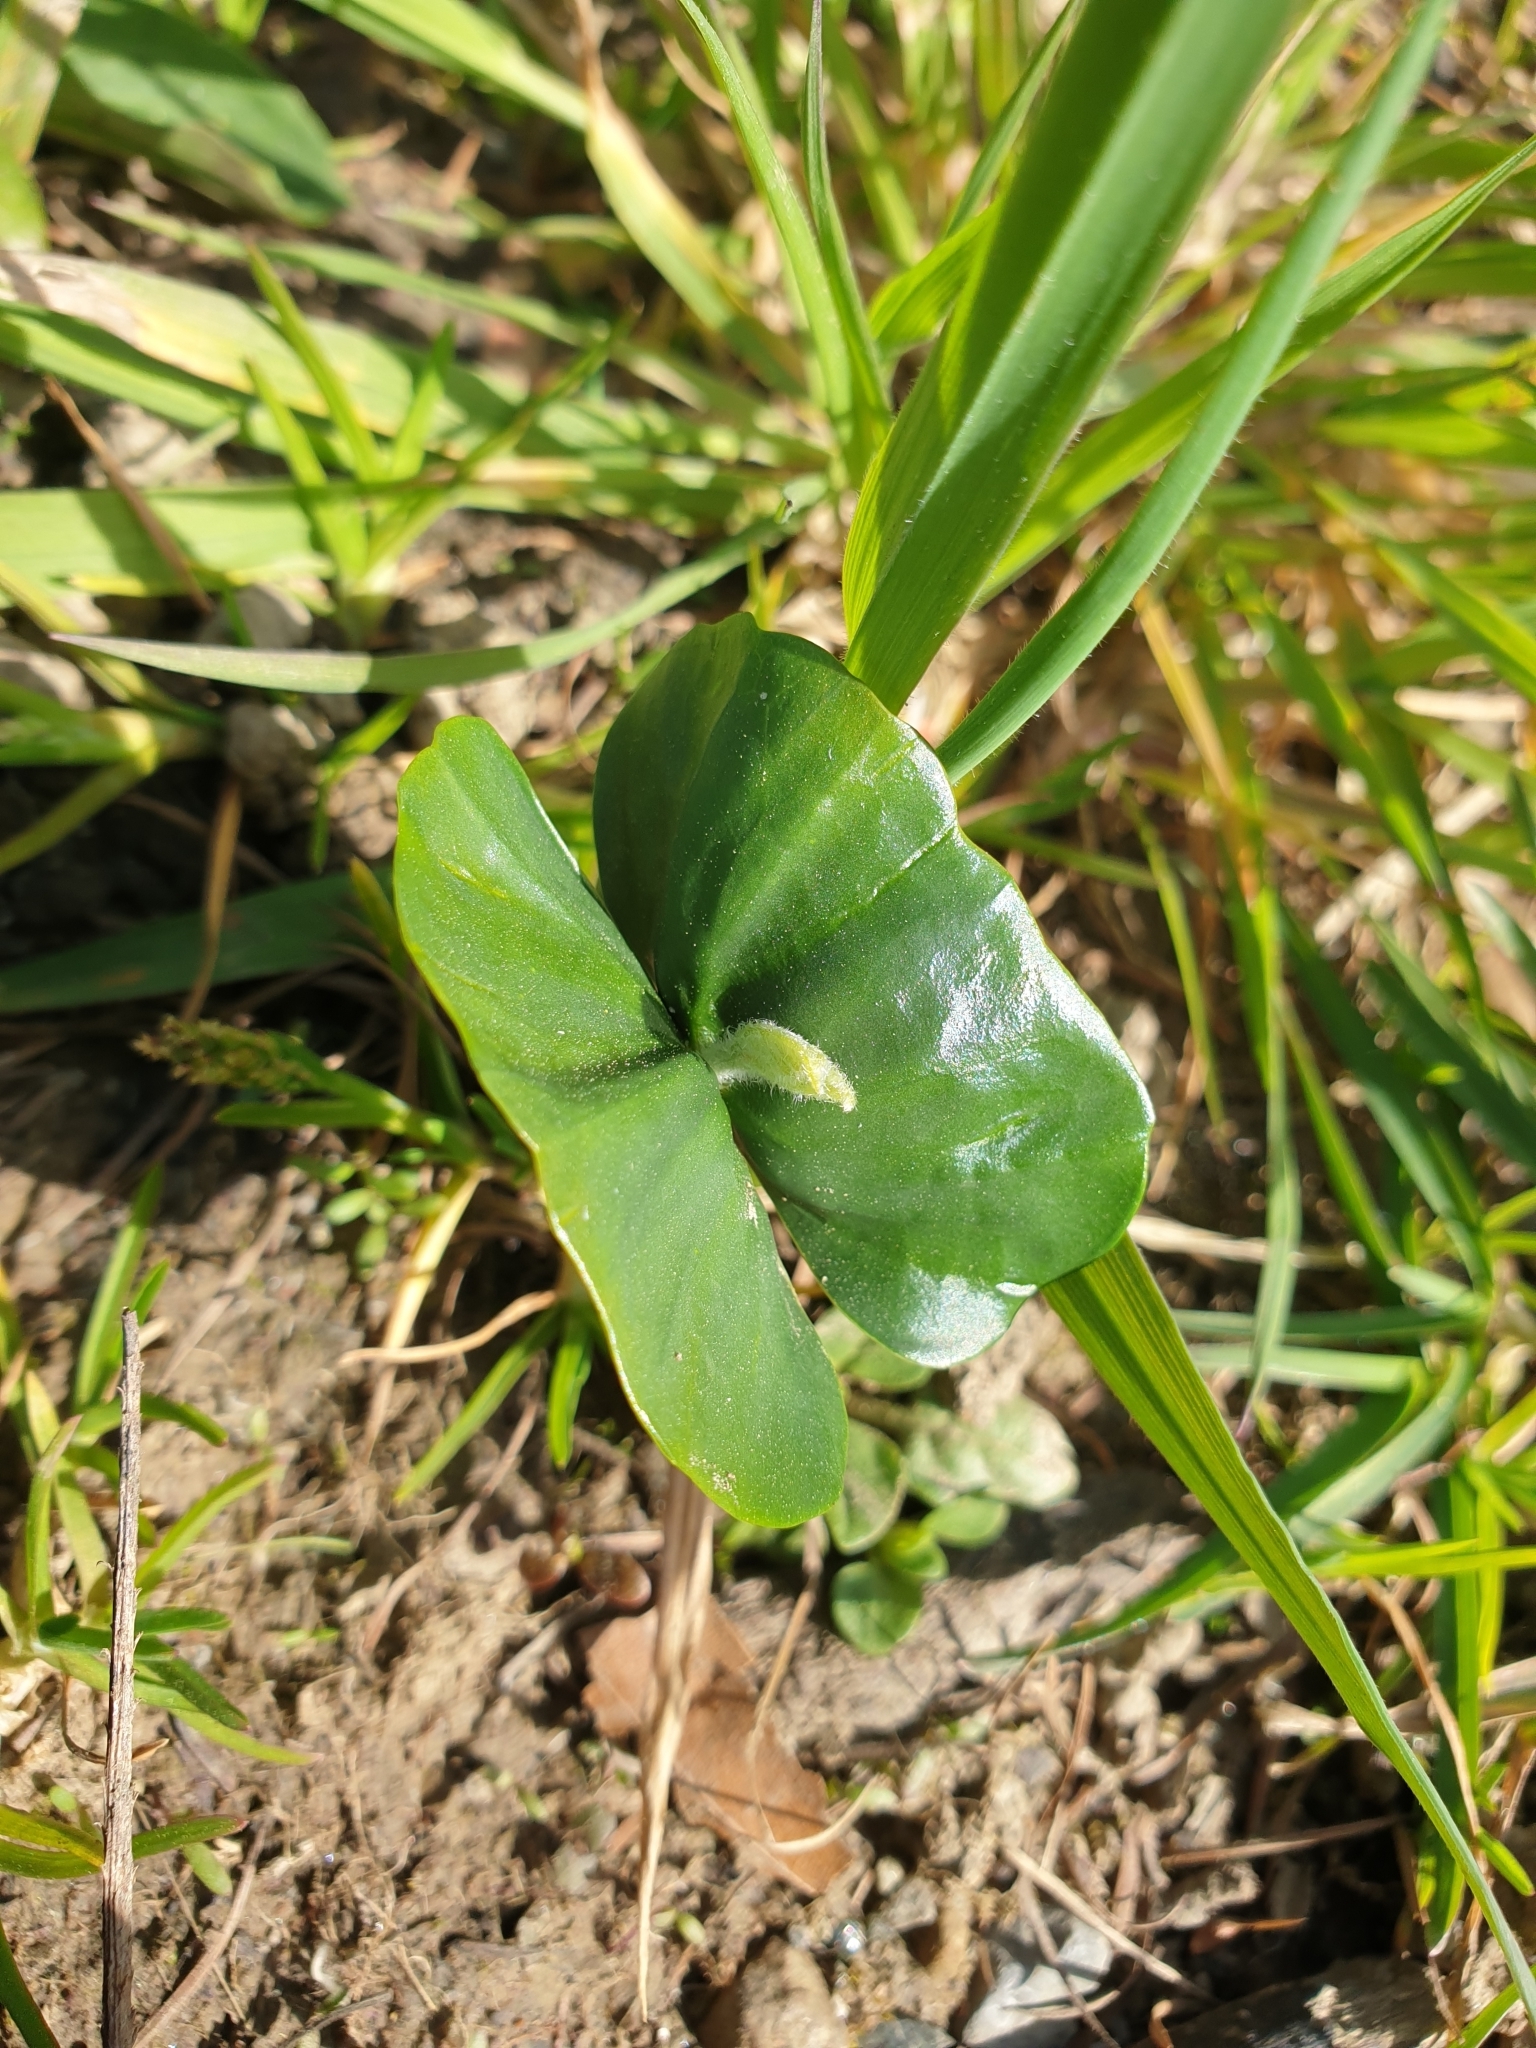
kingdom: Plantae
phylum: Tracheophyta
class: Magnoliopsida
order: Fagales
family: Fagaceae
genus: Fagus
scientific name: Fagus sylvatica
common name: Beech
